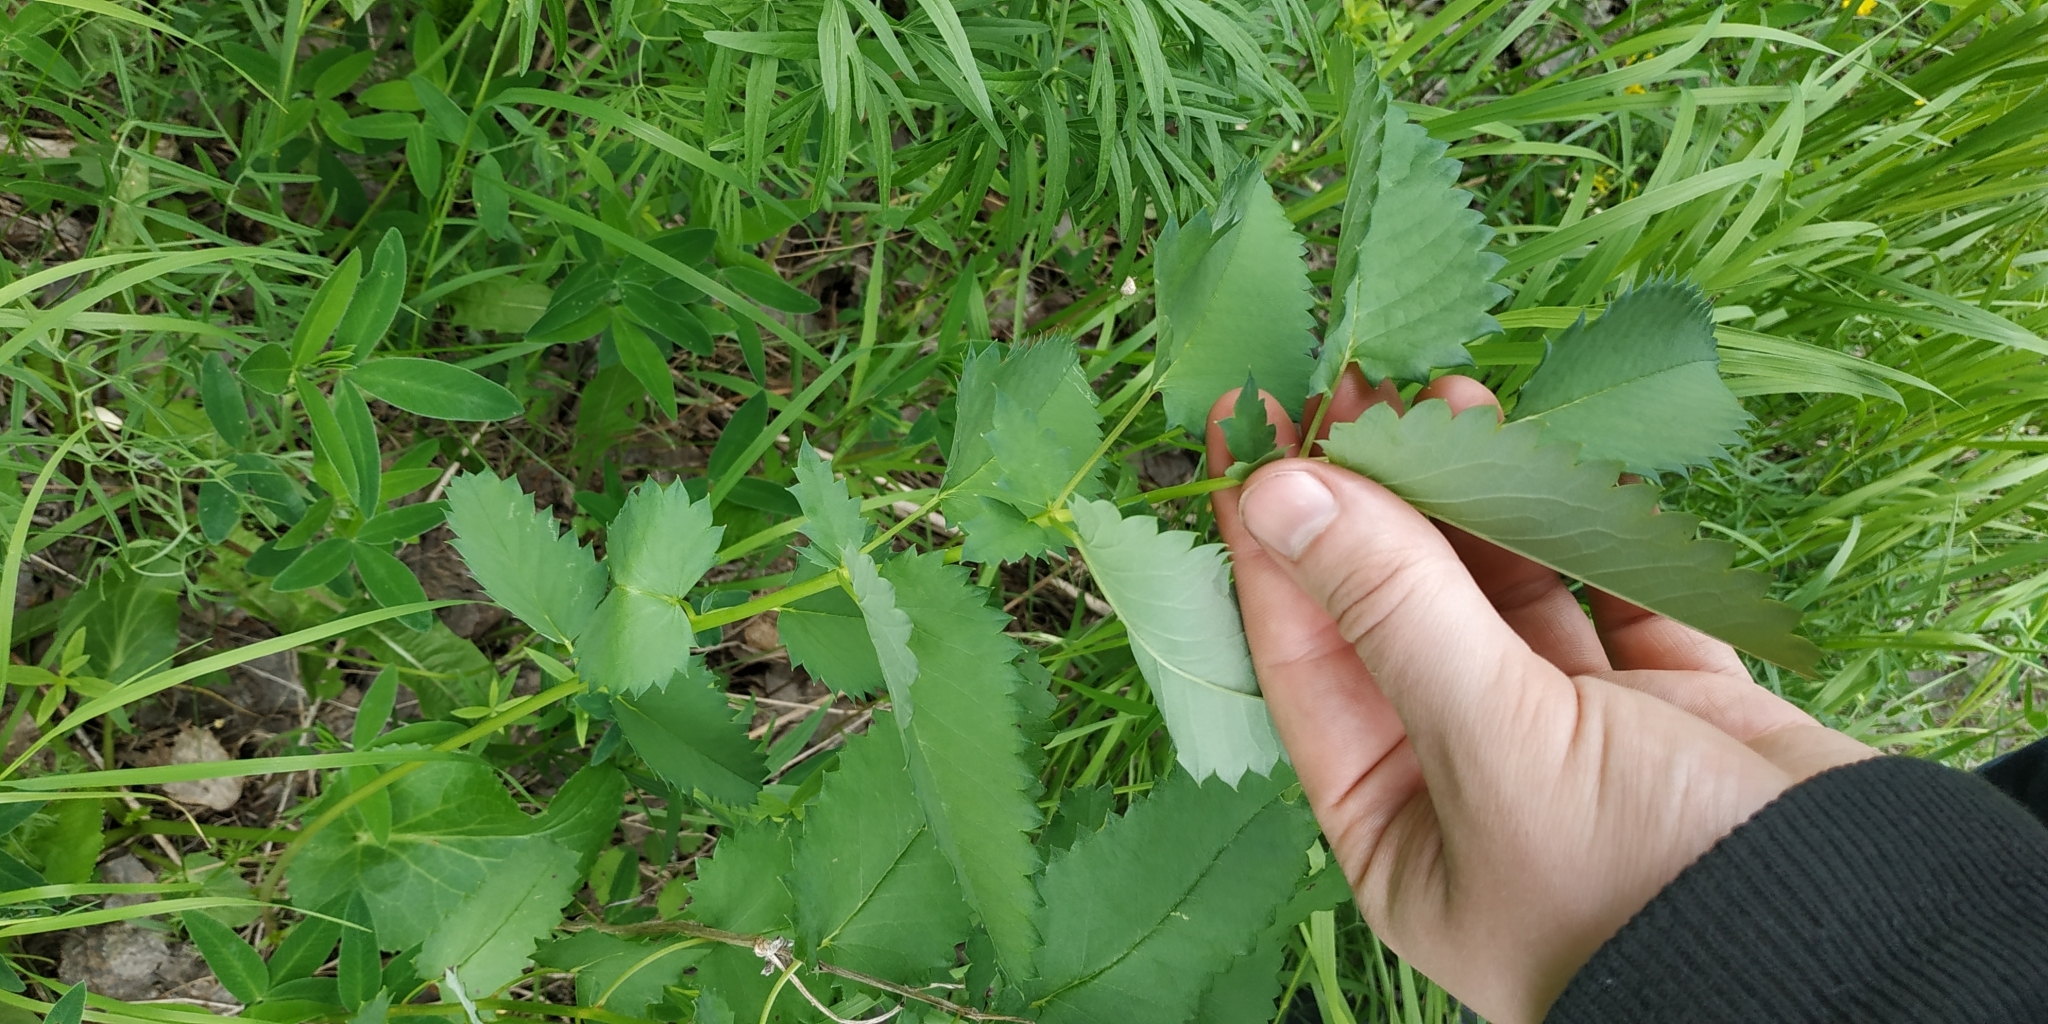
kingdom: Plantae
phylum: Tracheophyta
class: Magnoliopsida
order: Rosales
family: Rosaceae
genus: Sanguisorba
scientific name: Sanguisorba officinalis
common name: Great burnet
